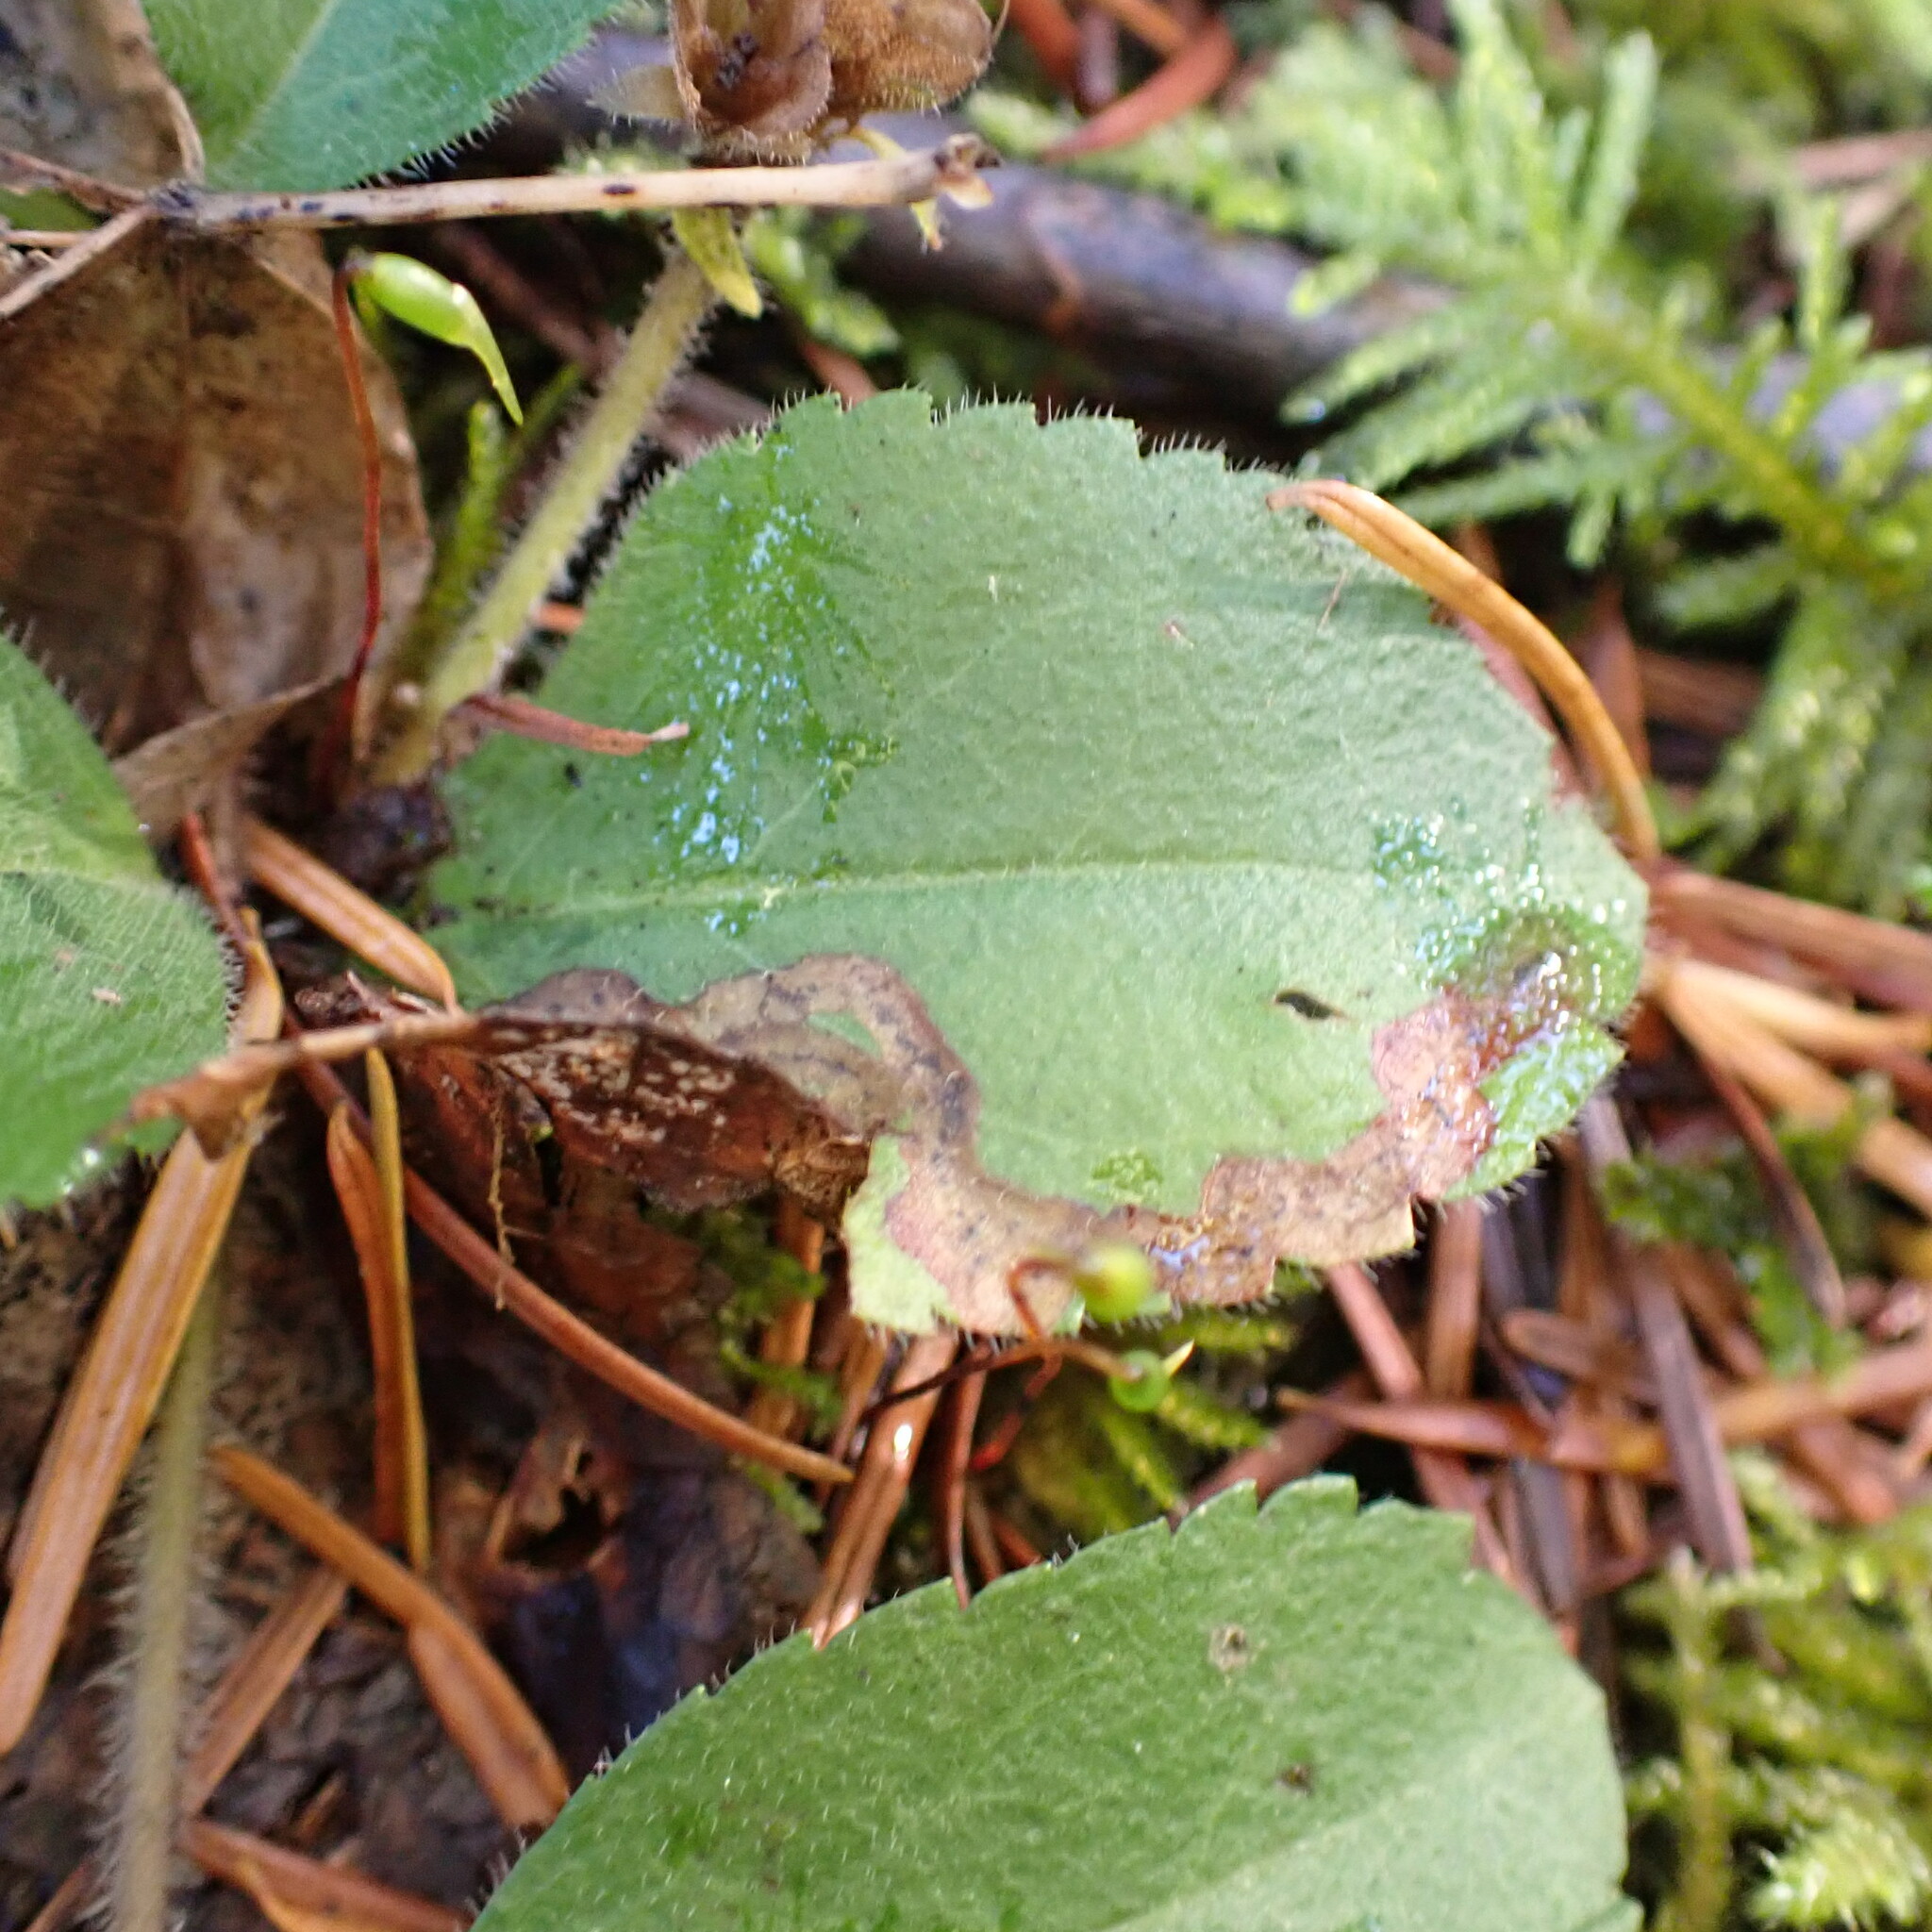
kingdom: Animalia
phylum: Arthropoda
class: Insecta
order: Diptera
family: Agromyzidae
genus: Phytomyza
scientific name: Phytomyza crassiseta
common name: Leaf-miner fly
